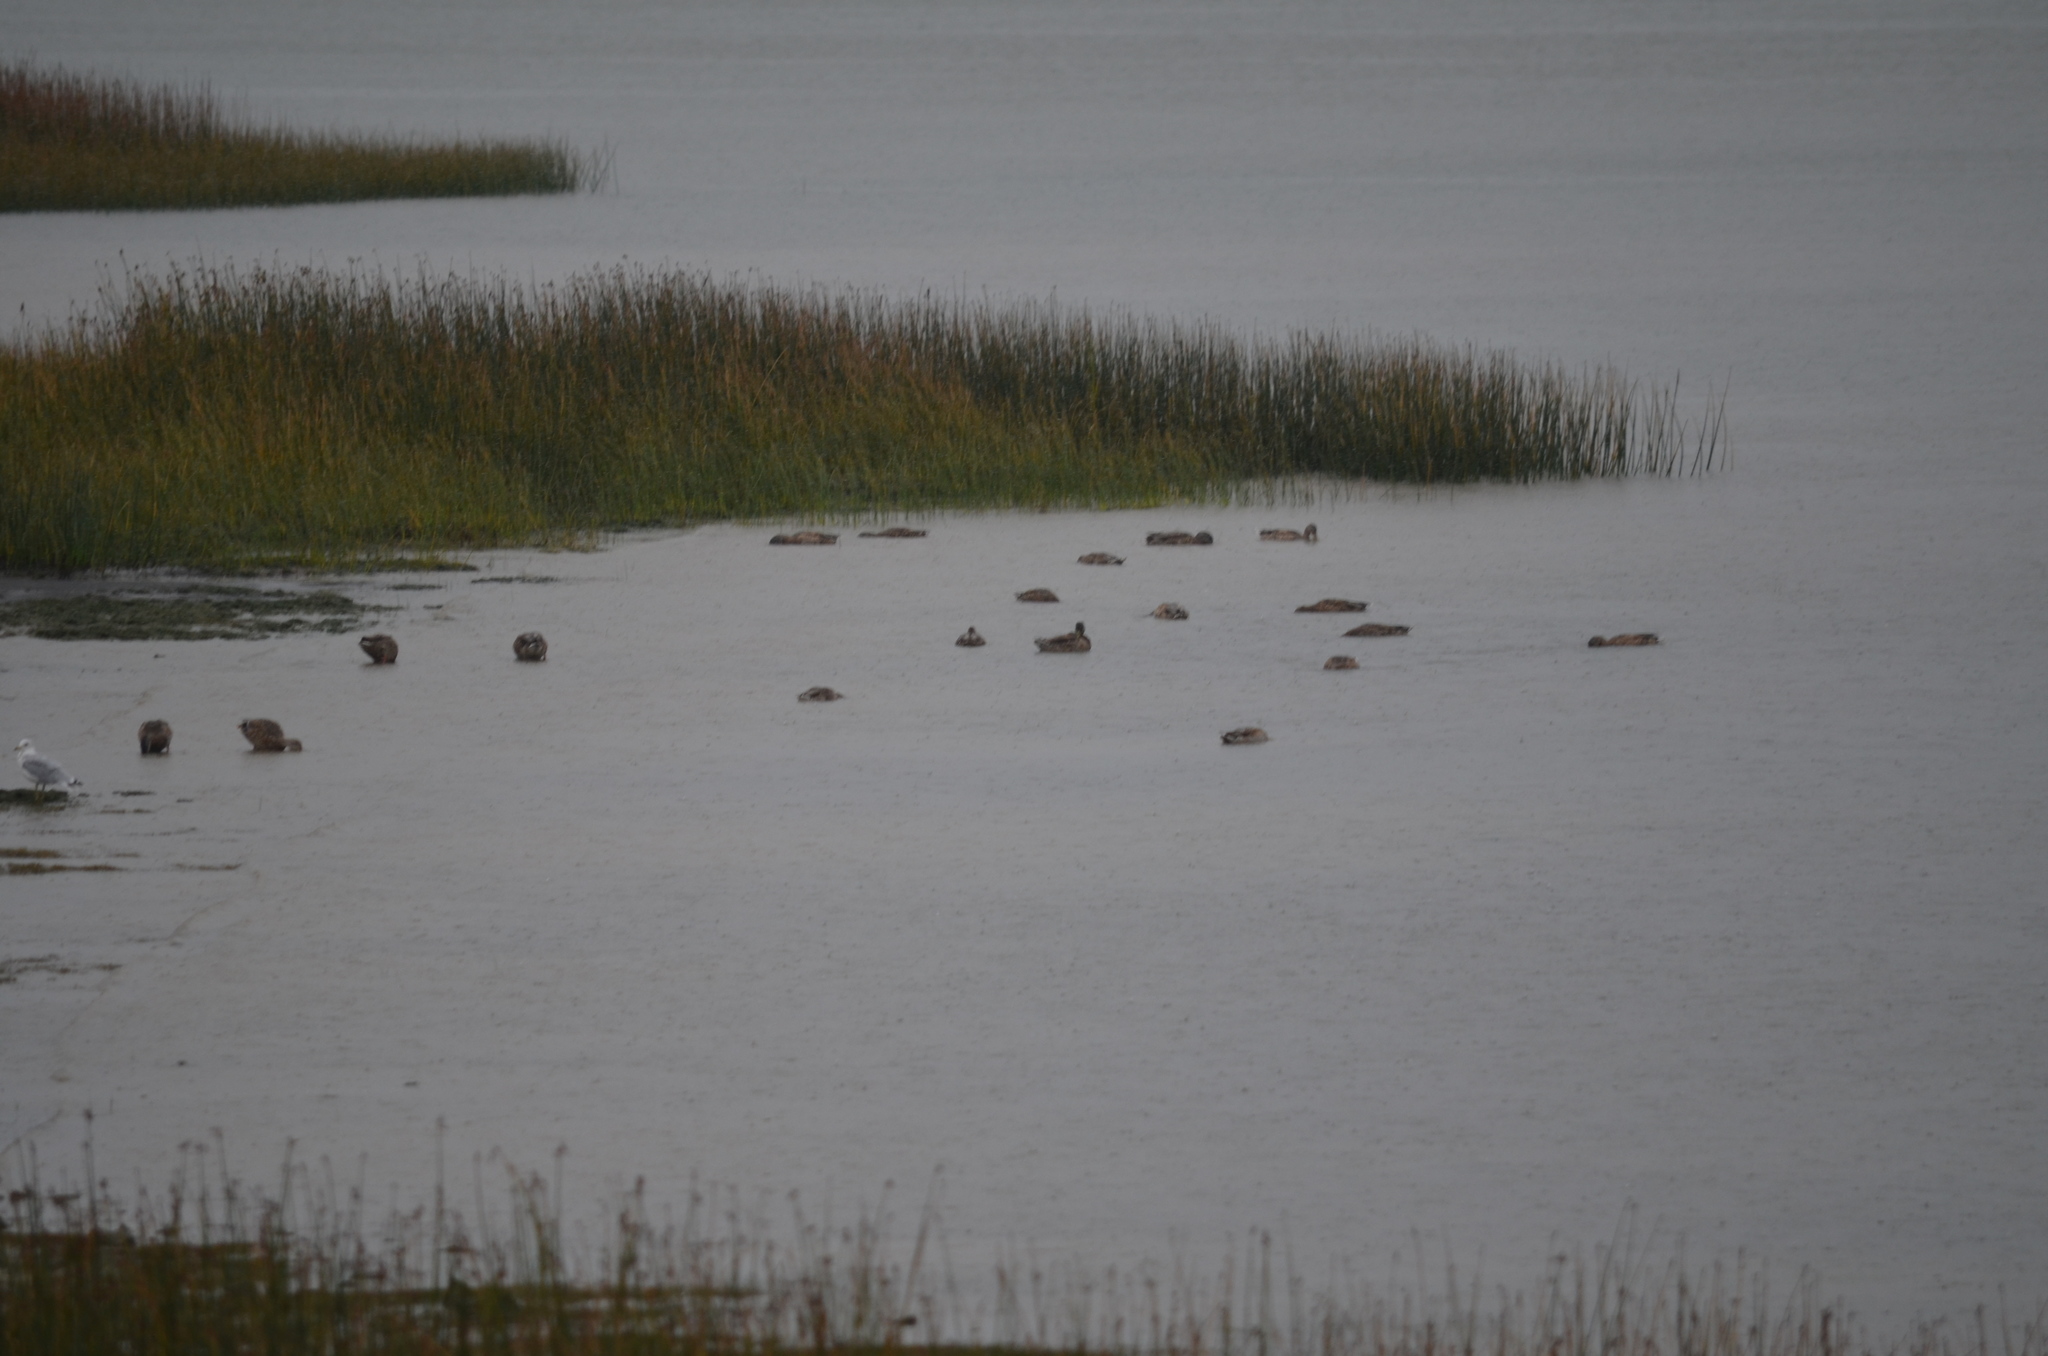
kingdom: Animalia
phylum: Chordata
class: Aves
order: Anseriformes
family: Anatidae
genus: Anas
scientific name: Anas platyrhynchos
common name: Mallard
